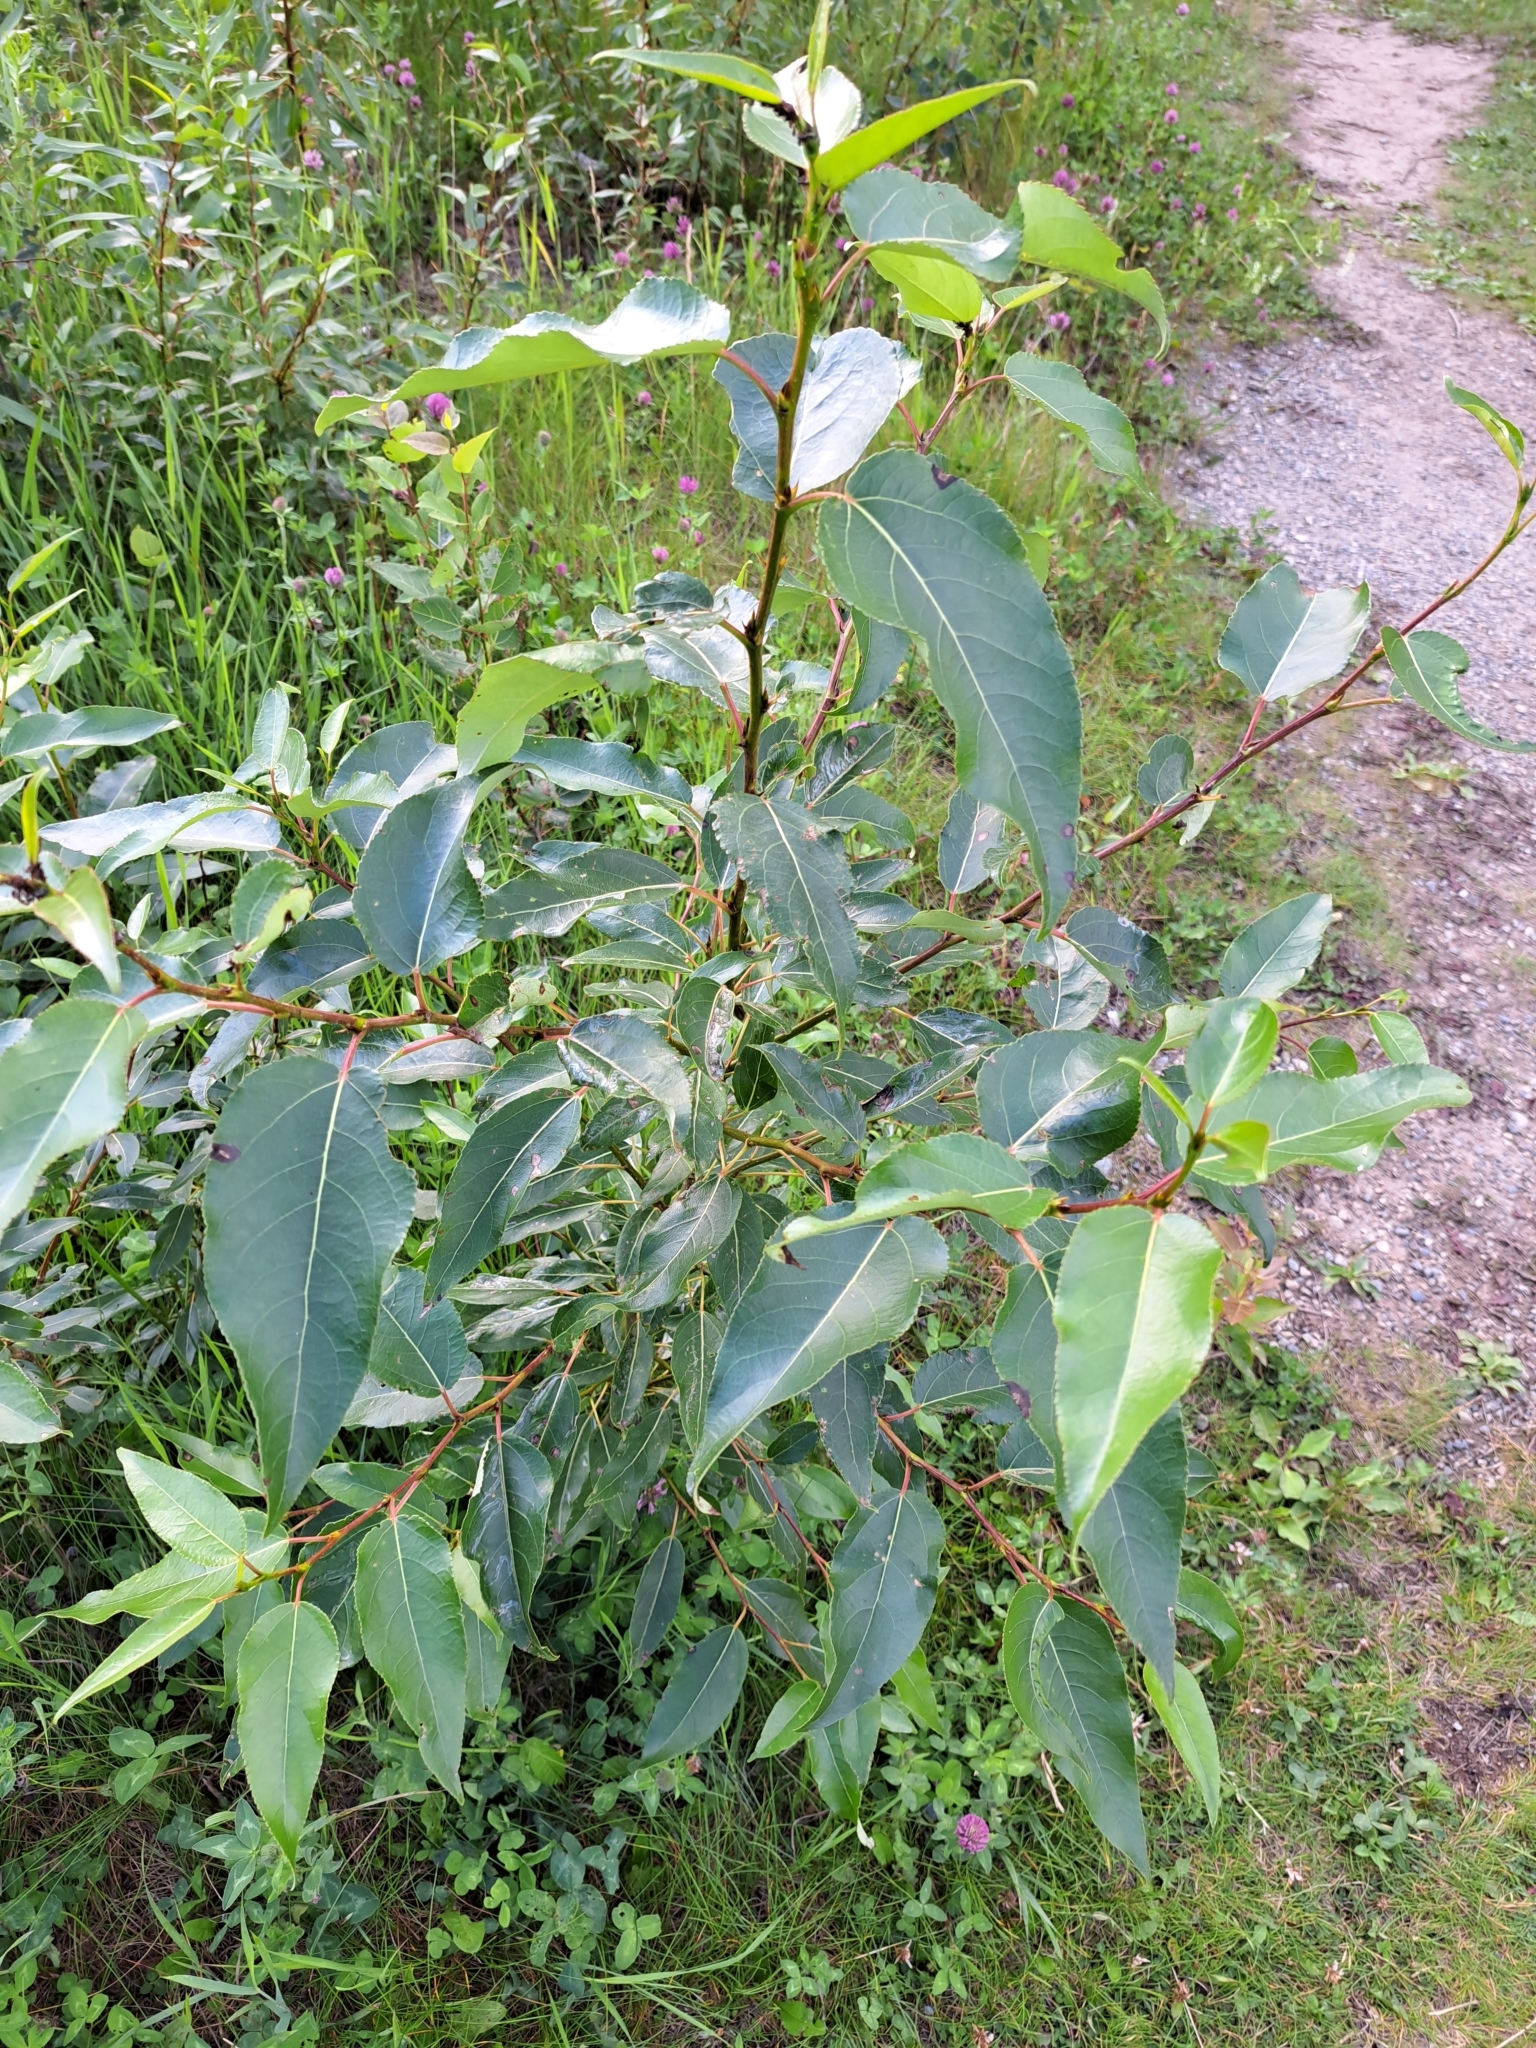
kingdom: Plantae
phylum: Tracheophyta
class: Magnoliopsida
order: Malpighiales
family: Salicaceae
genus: Populus
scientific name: Populus balsamifera
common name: Balsam poplar
